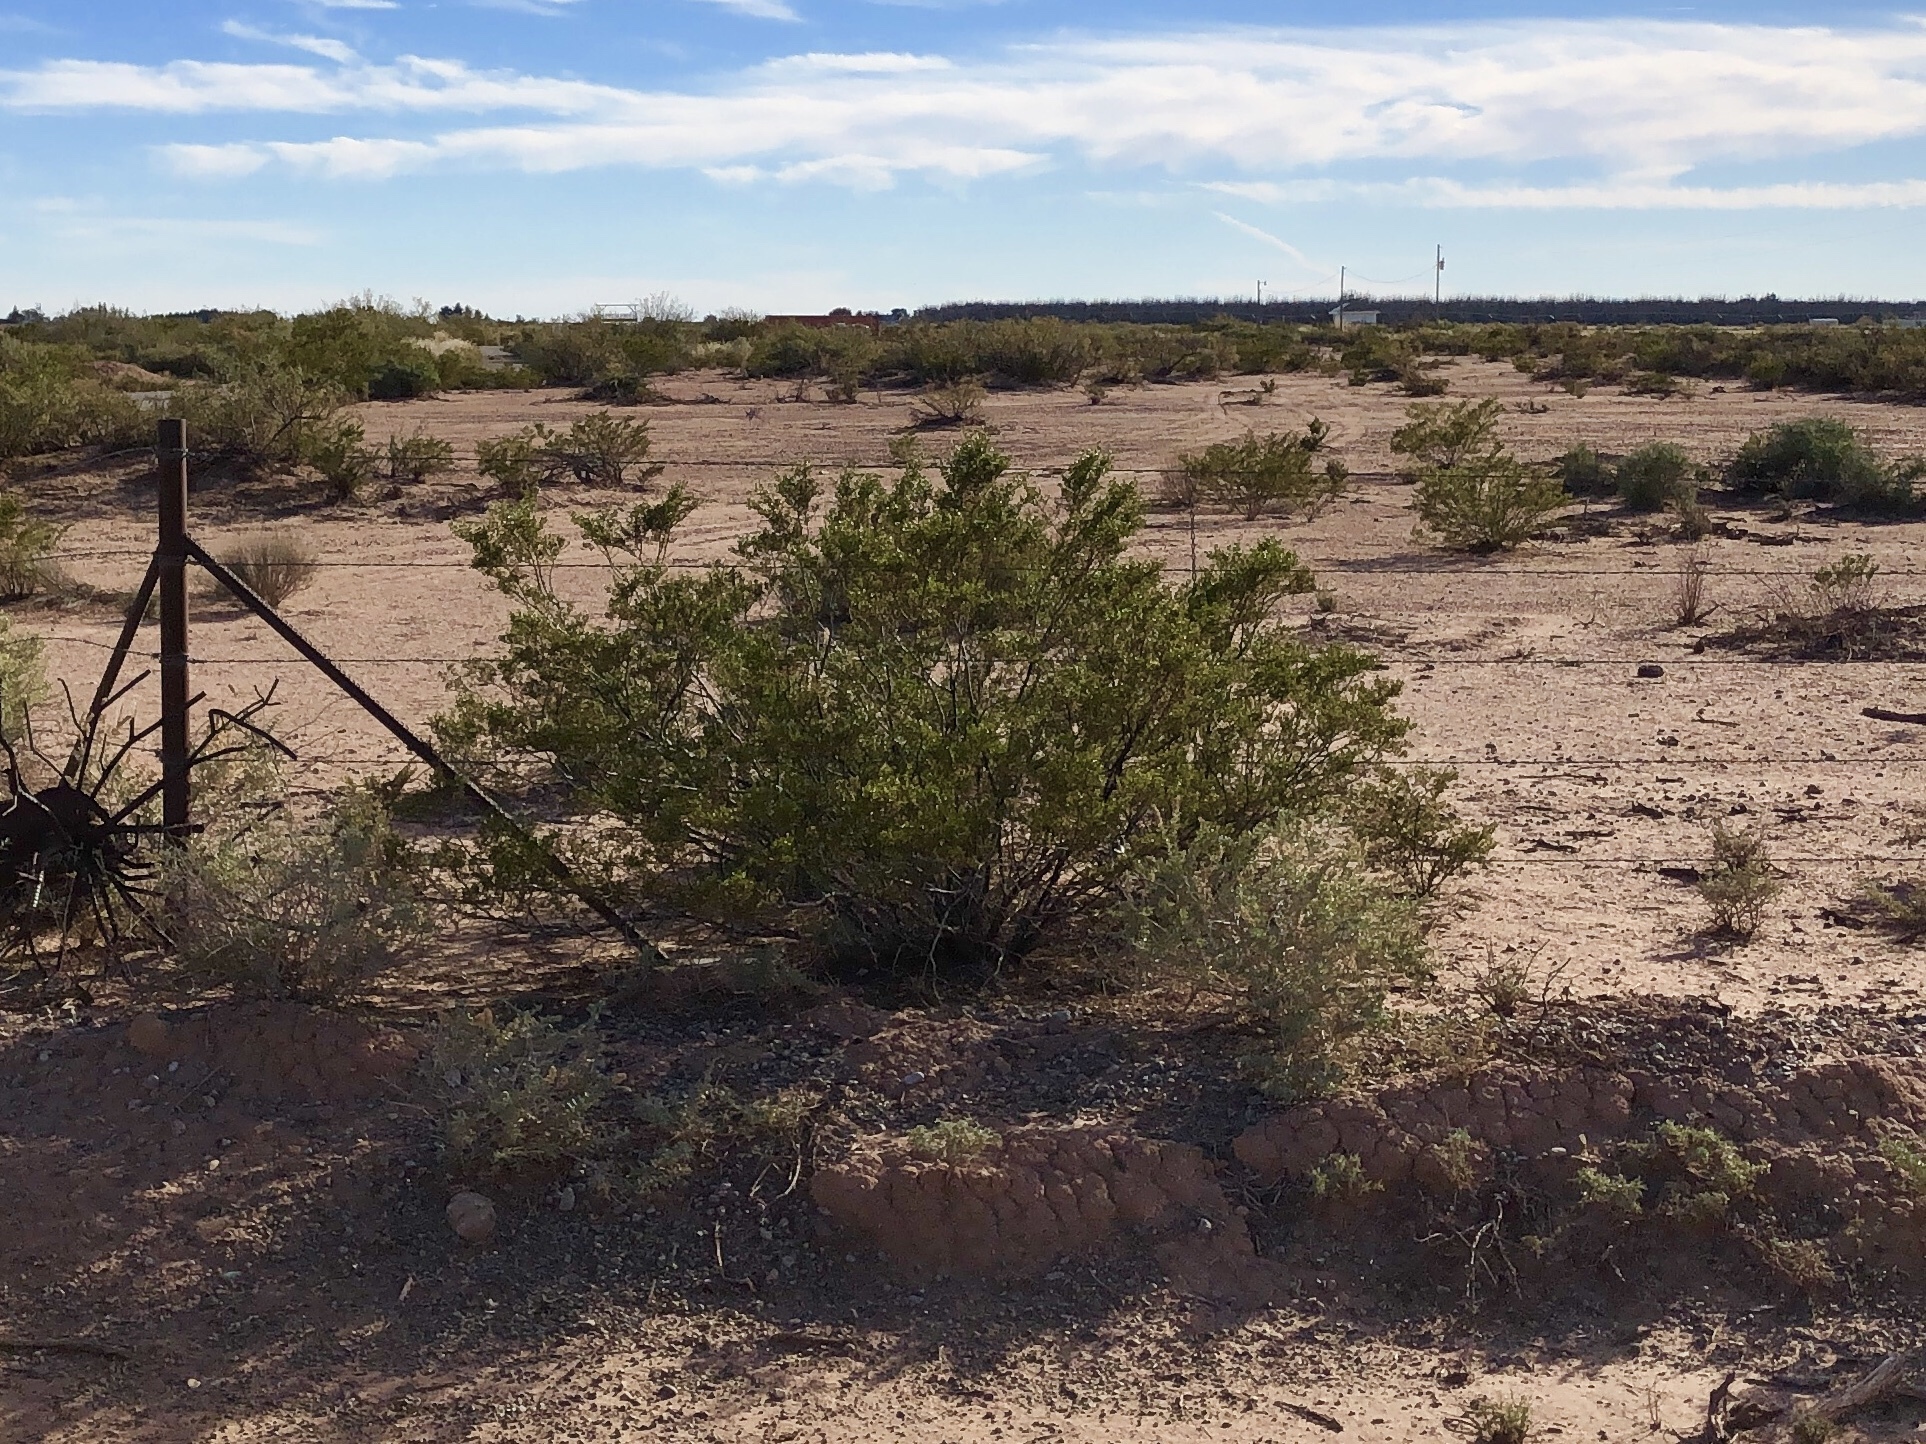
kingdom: Plantae
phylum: Tracheophyta
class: Magnoliopsida
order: Zygophyllales
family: Zygophyllaceae
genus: Larrea
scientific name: Larrea tridentata
